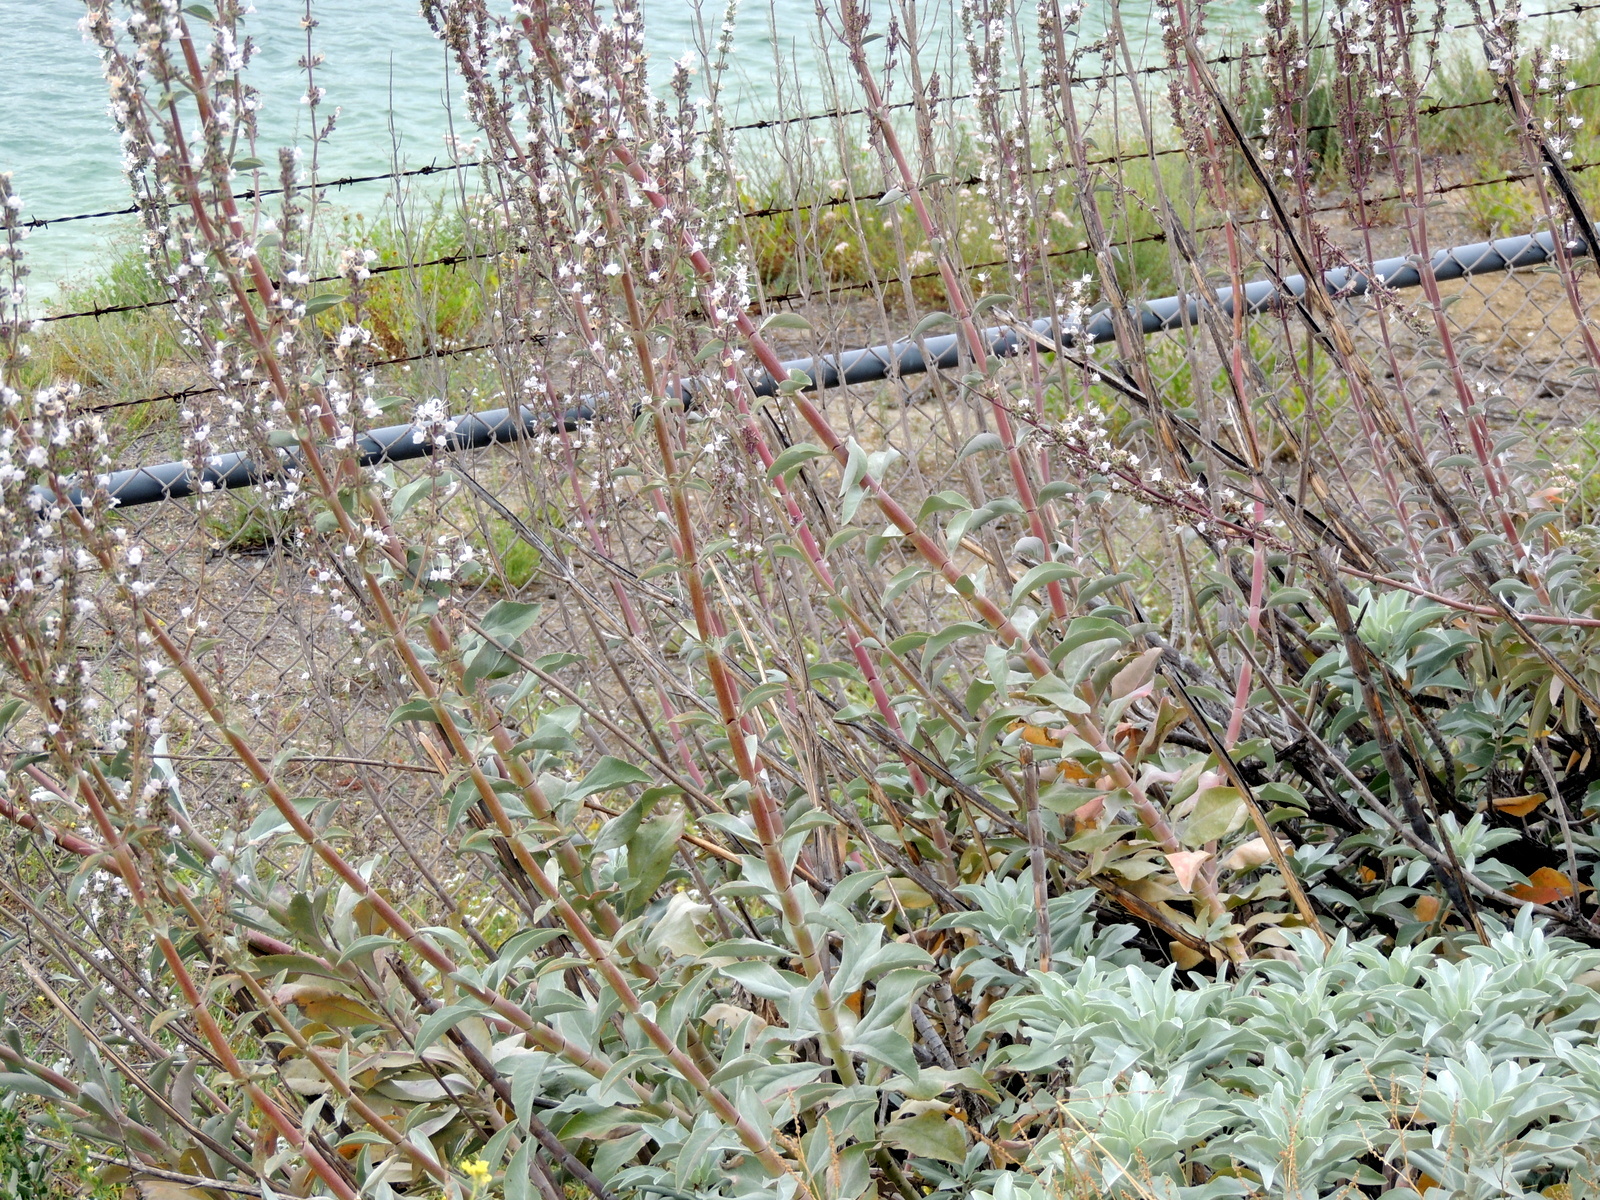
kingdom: Plantae
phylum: Tracheophyta
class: Magnoliopsida
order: Lamiales
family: Lamiaceae
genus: Salvia
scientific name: Salvia apiana
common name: White sage
